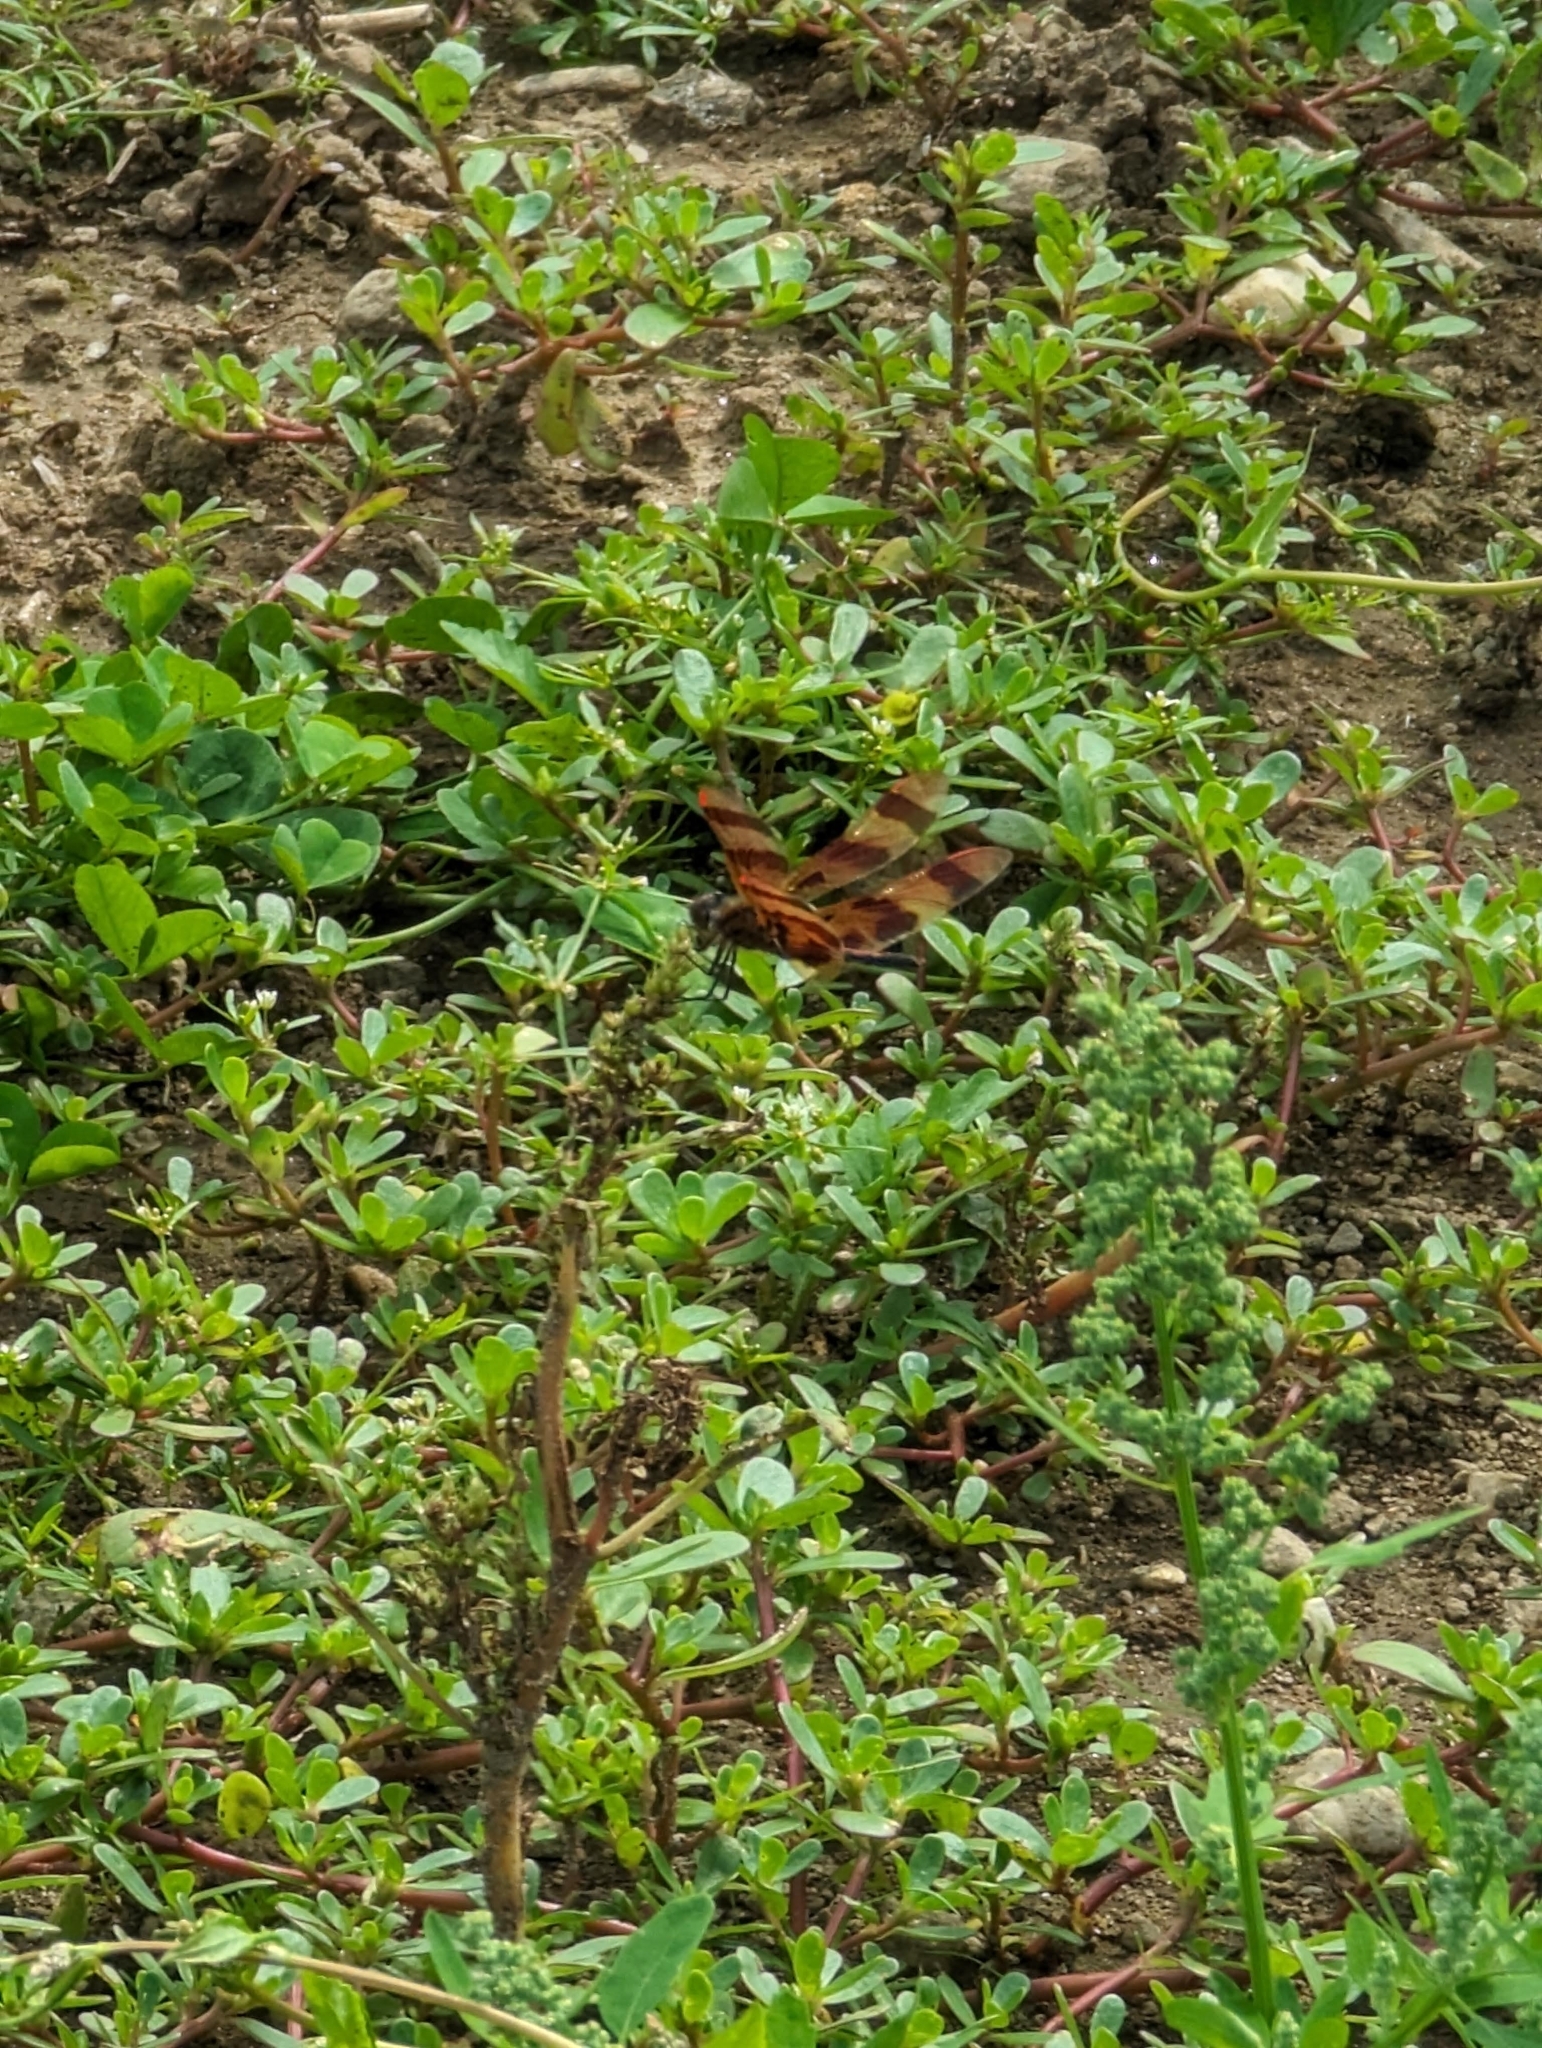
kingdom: Plantae
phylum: Tracheophyta
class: Magnoliopsida
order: Caryophyllales
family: Portulacaceae
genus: Portulaca
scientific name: Portulaca oleracea
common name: Common purslane
